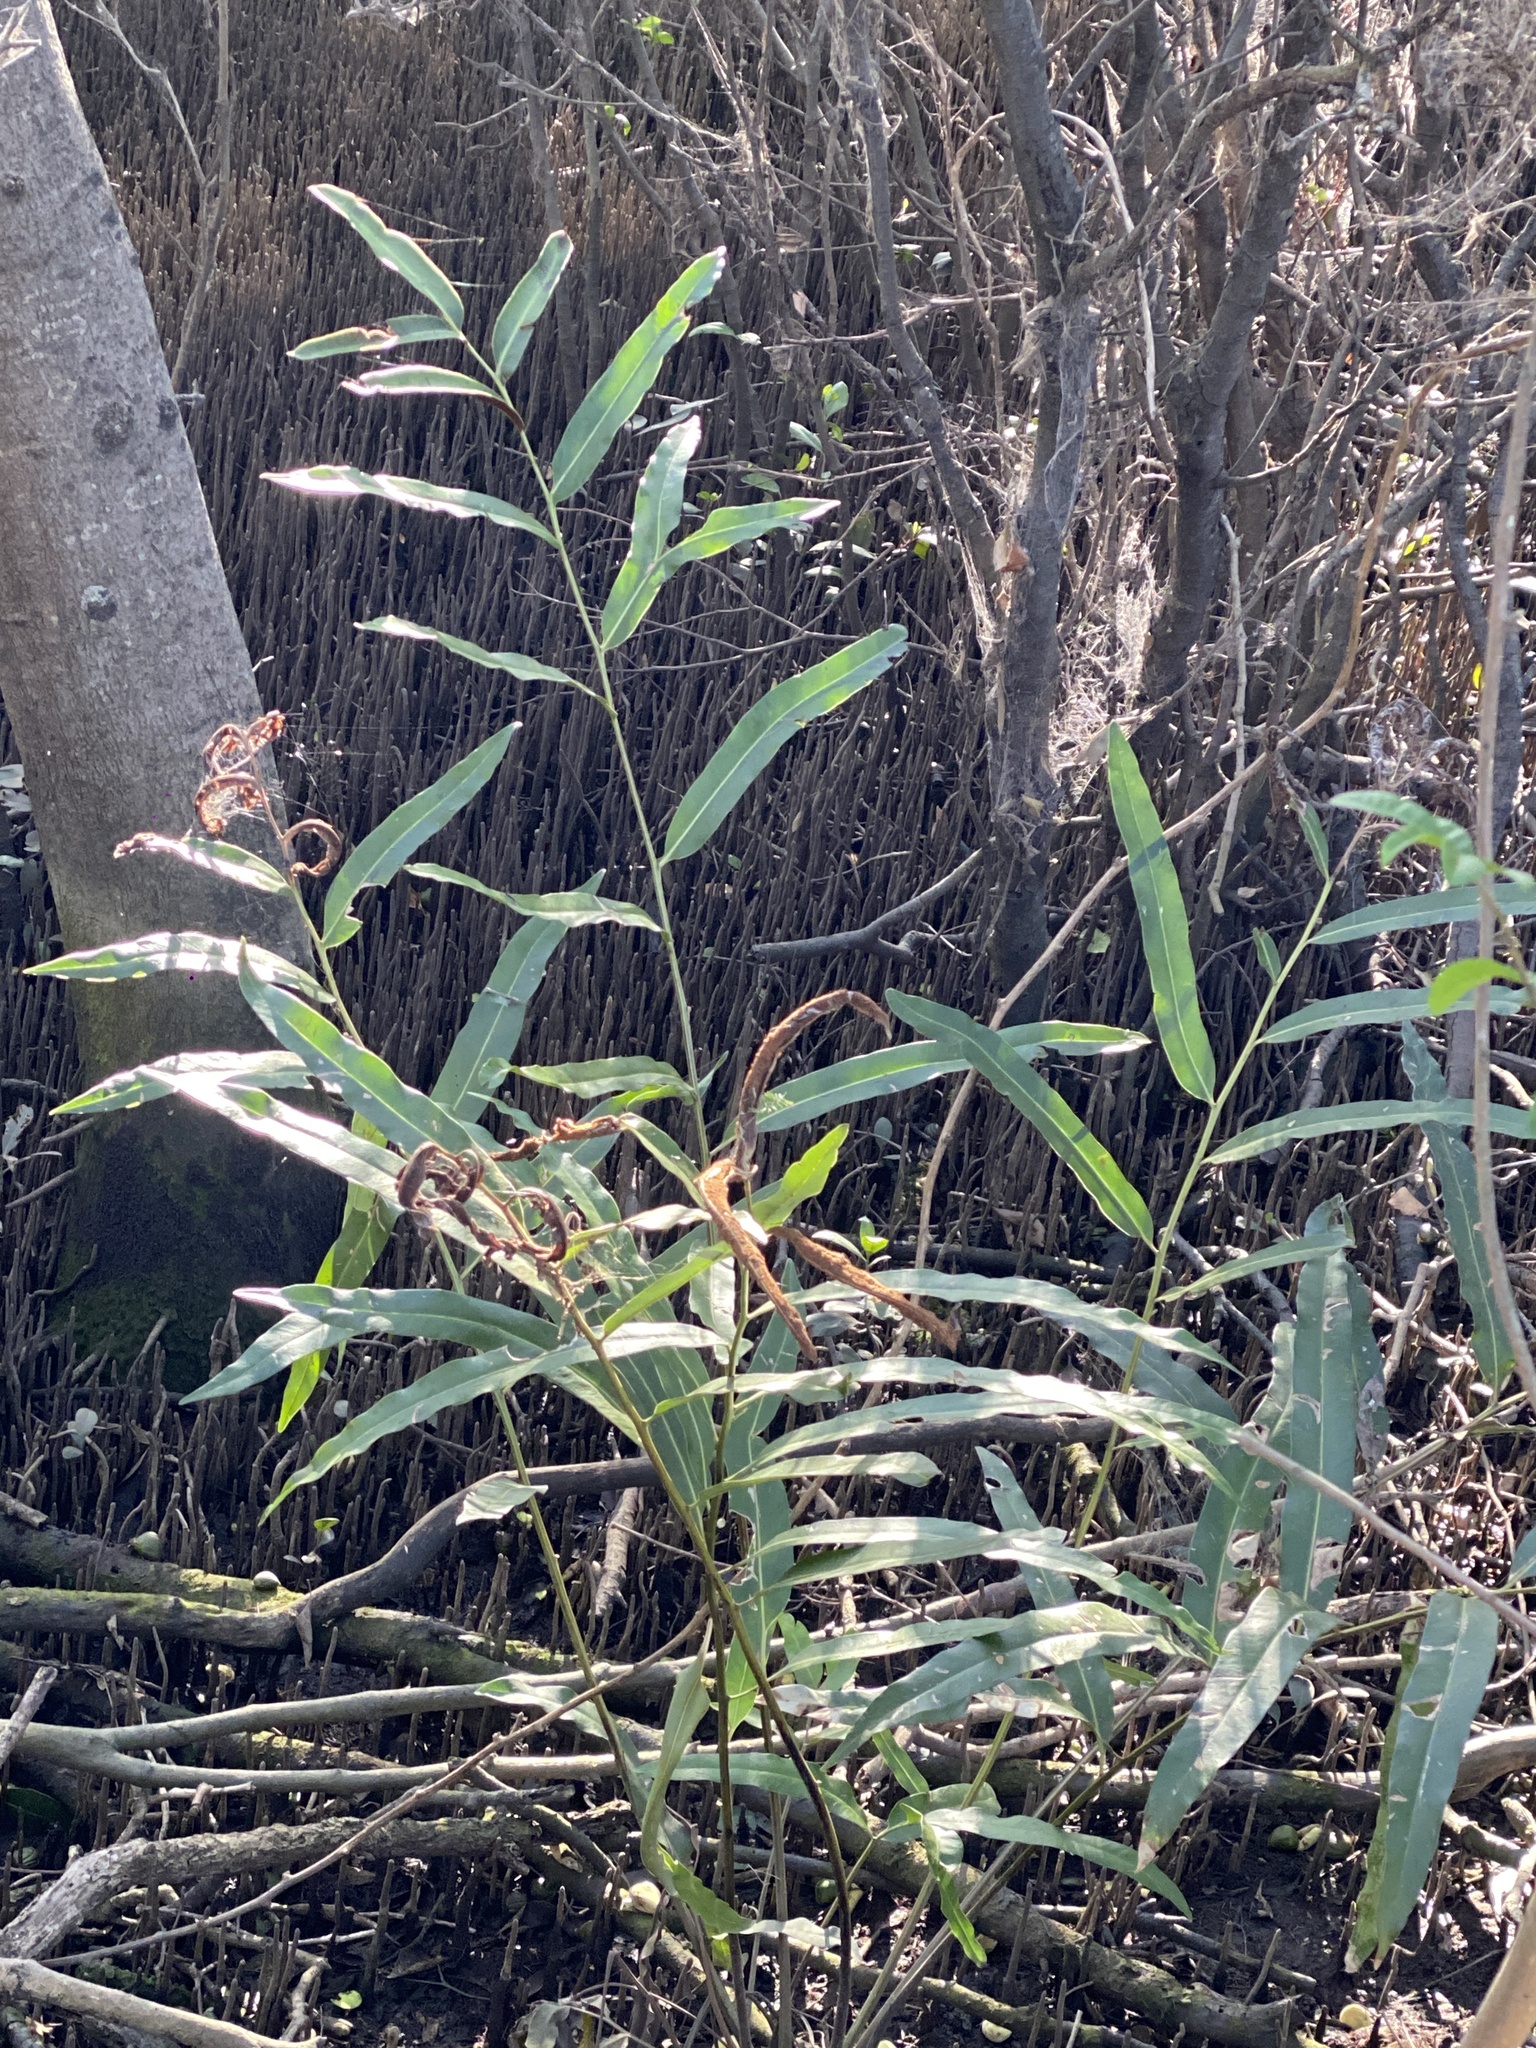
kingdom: Plantae
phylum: Tracheophyta
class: Polypodiopsida
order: Polypodiales
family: Pteridaceae
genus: Acrostichum
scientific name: Acrostichum speciosum
